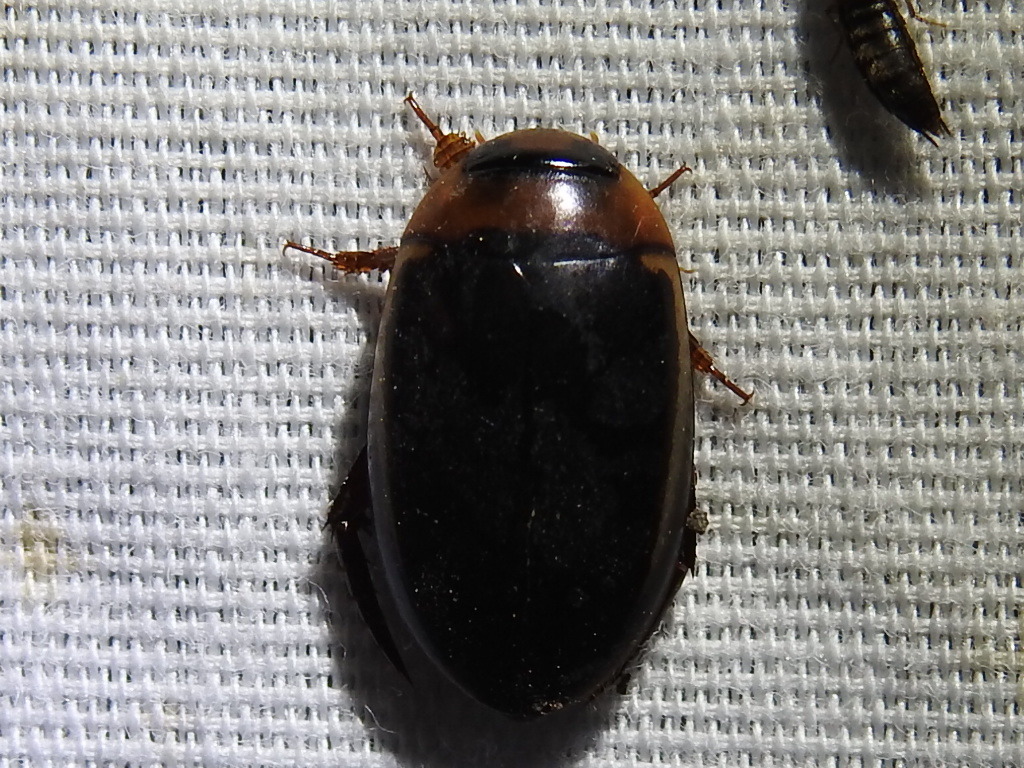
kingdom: Animalia
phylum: Arthropoda
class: Insecta
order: Coleoptera
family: Dytiscidae
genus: Hydaticus
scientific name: Hydaticus bimarginatus
